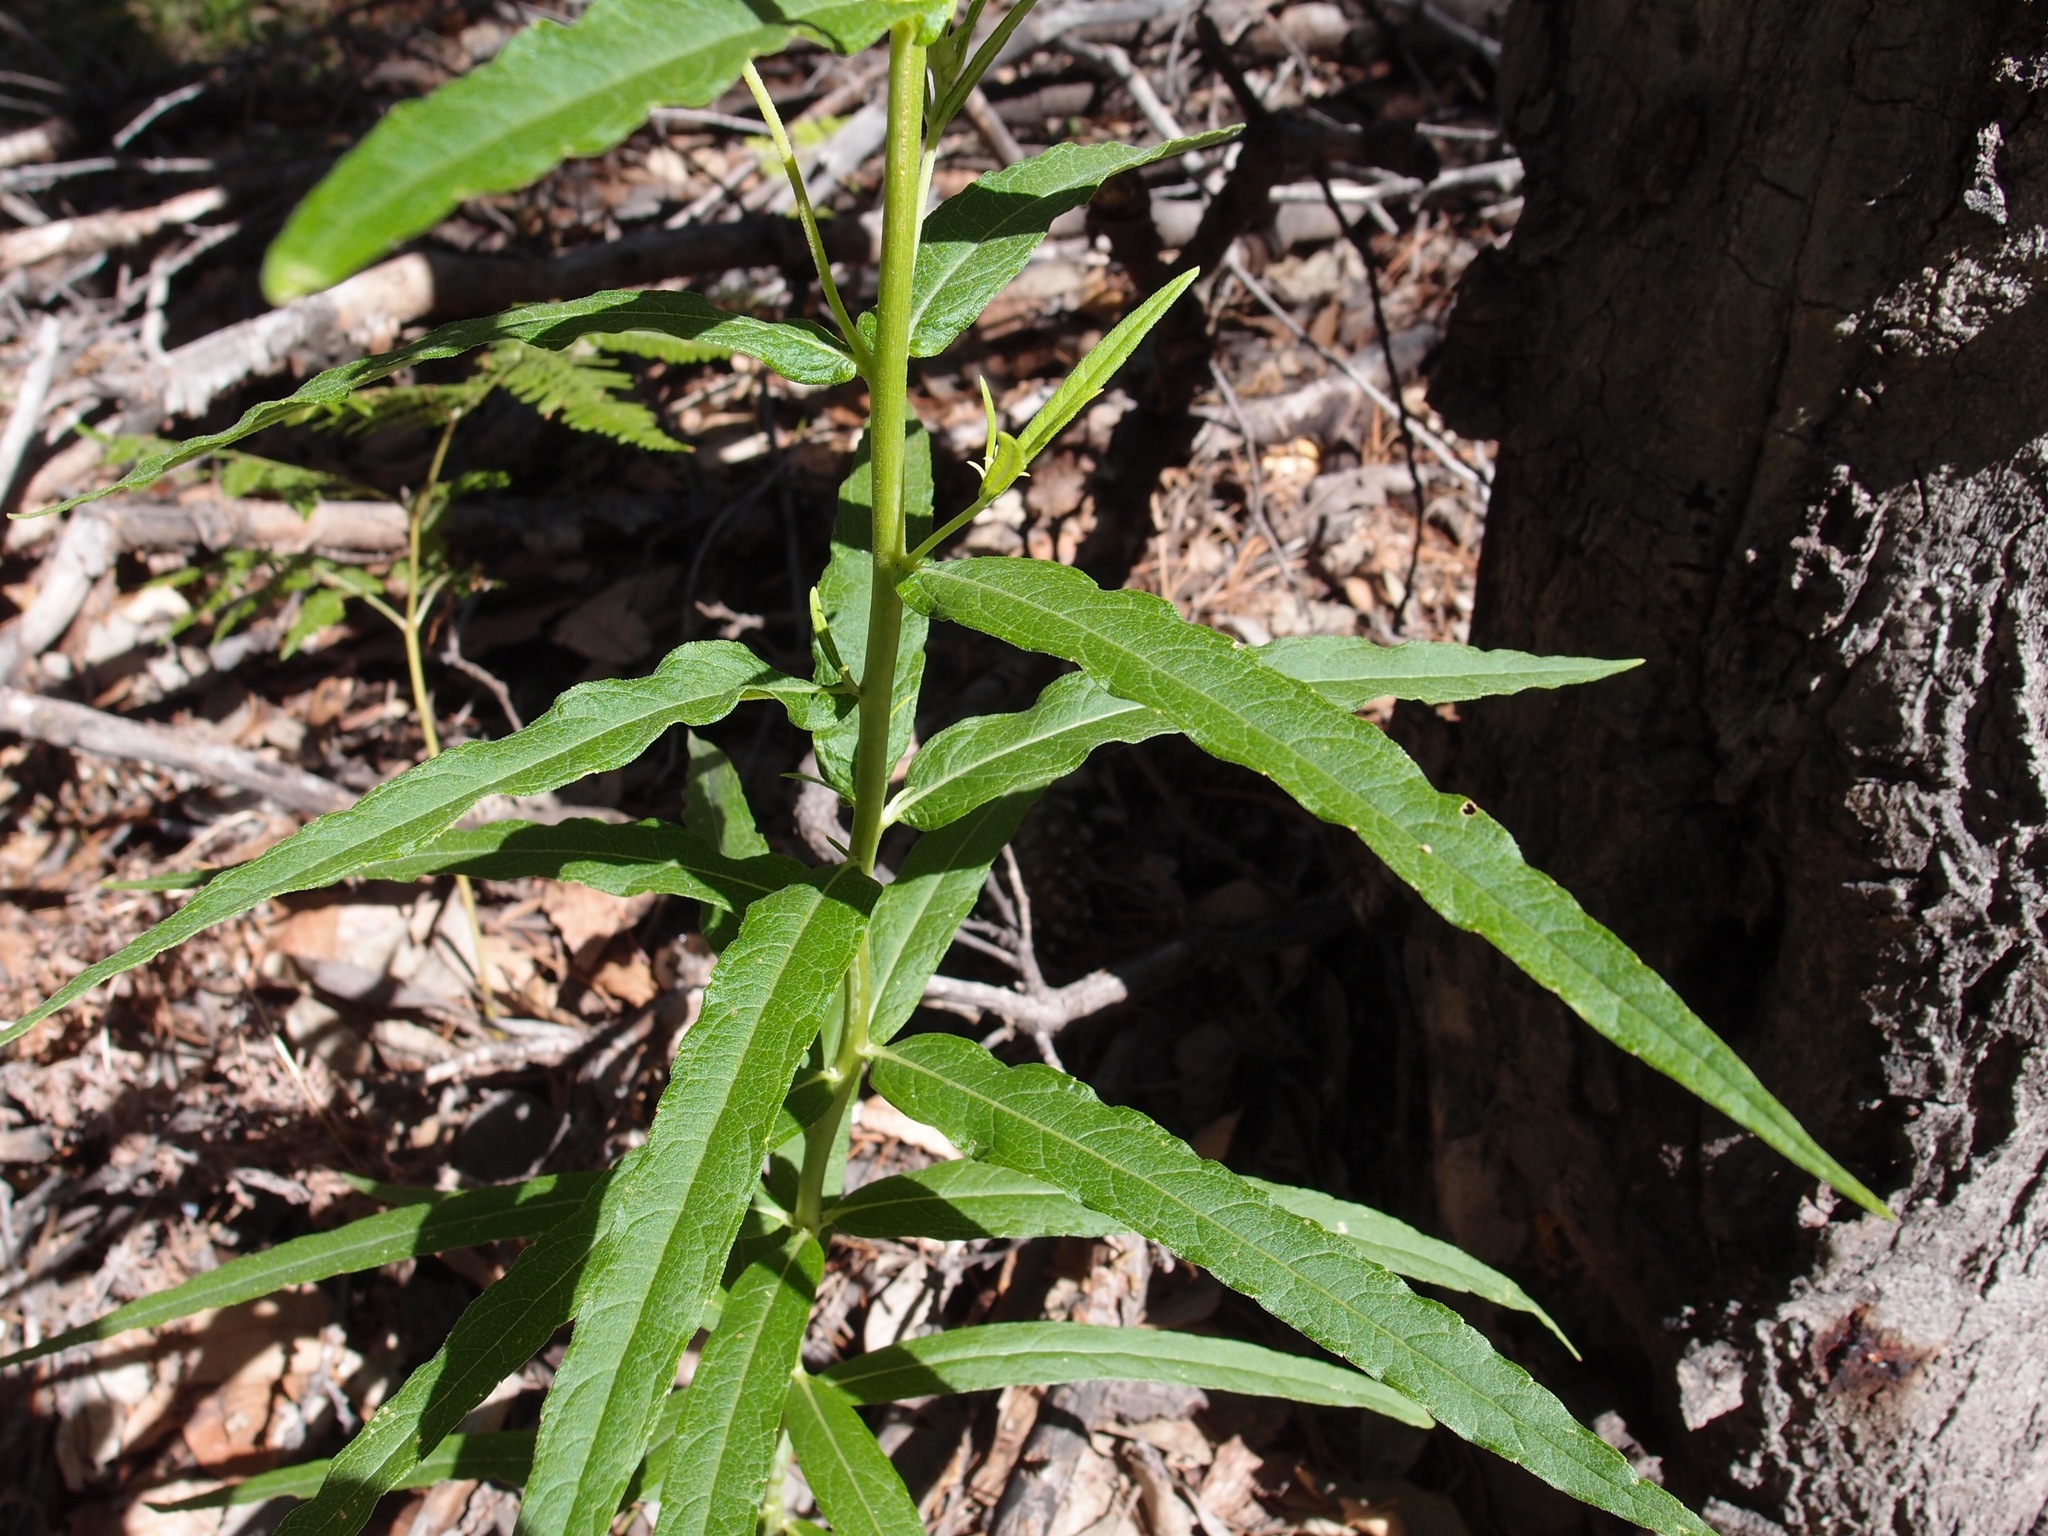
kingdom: Plantae
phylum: Tracheophyta
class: Magnoliopsida
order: Asterales
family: Asteraceae
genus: Verbesina
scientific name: Verbesina longifolia
